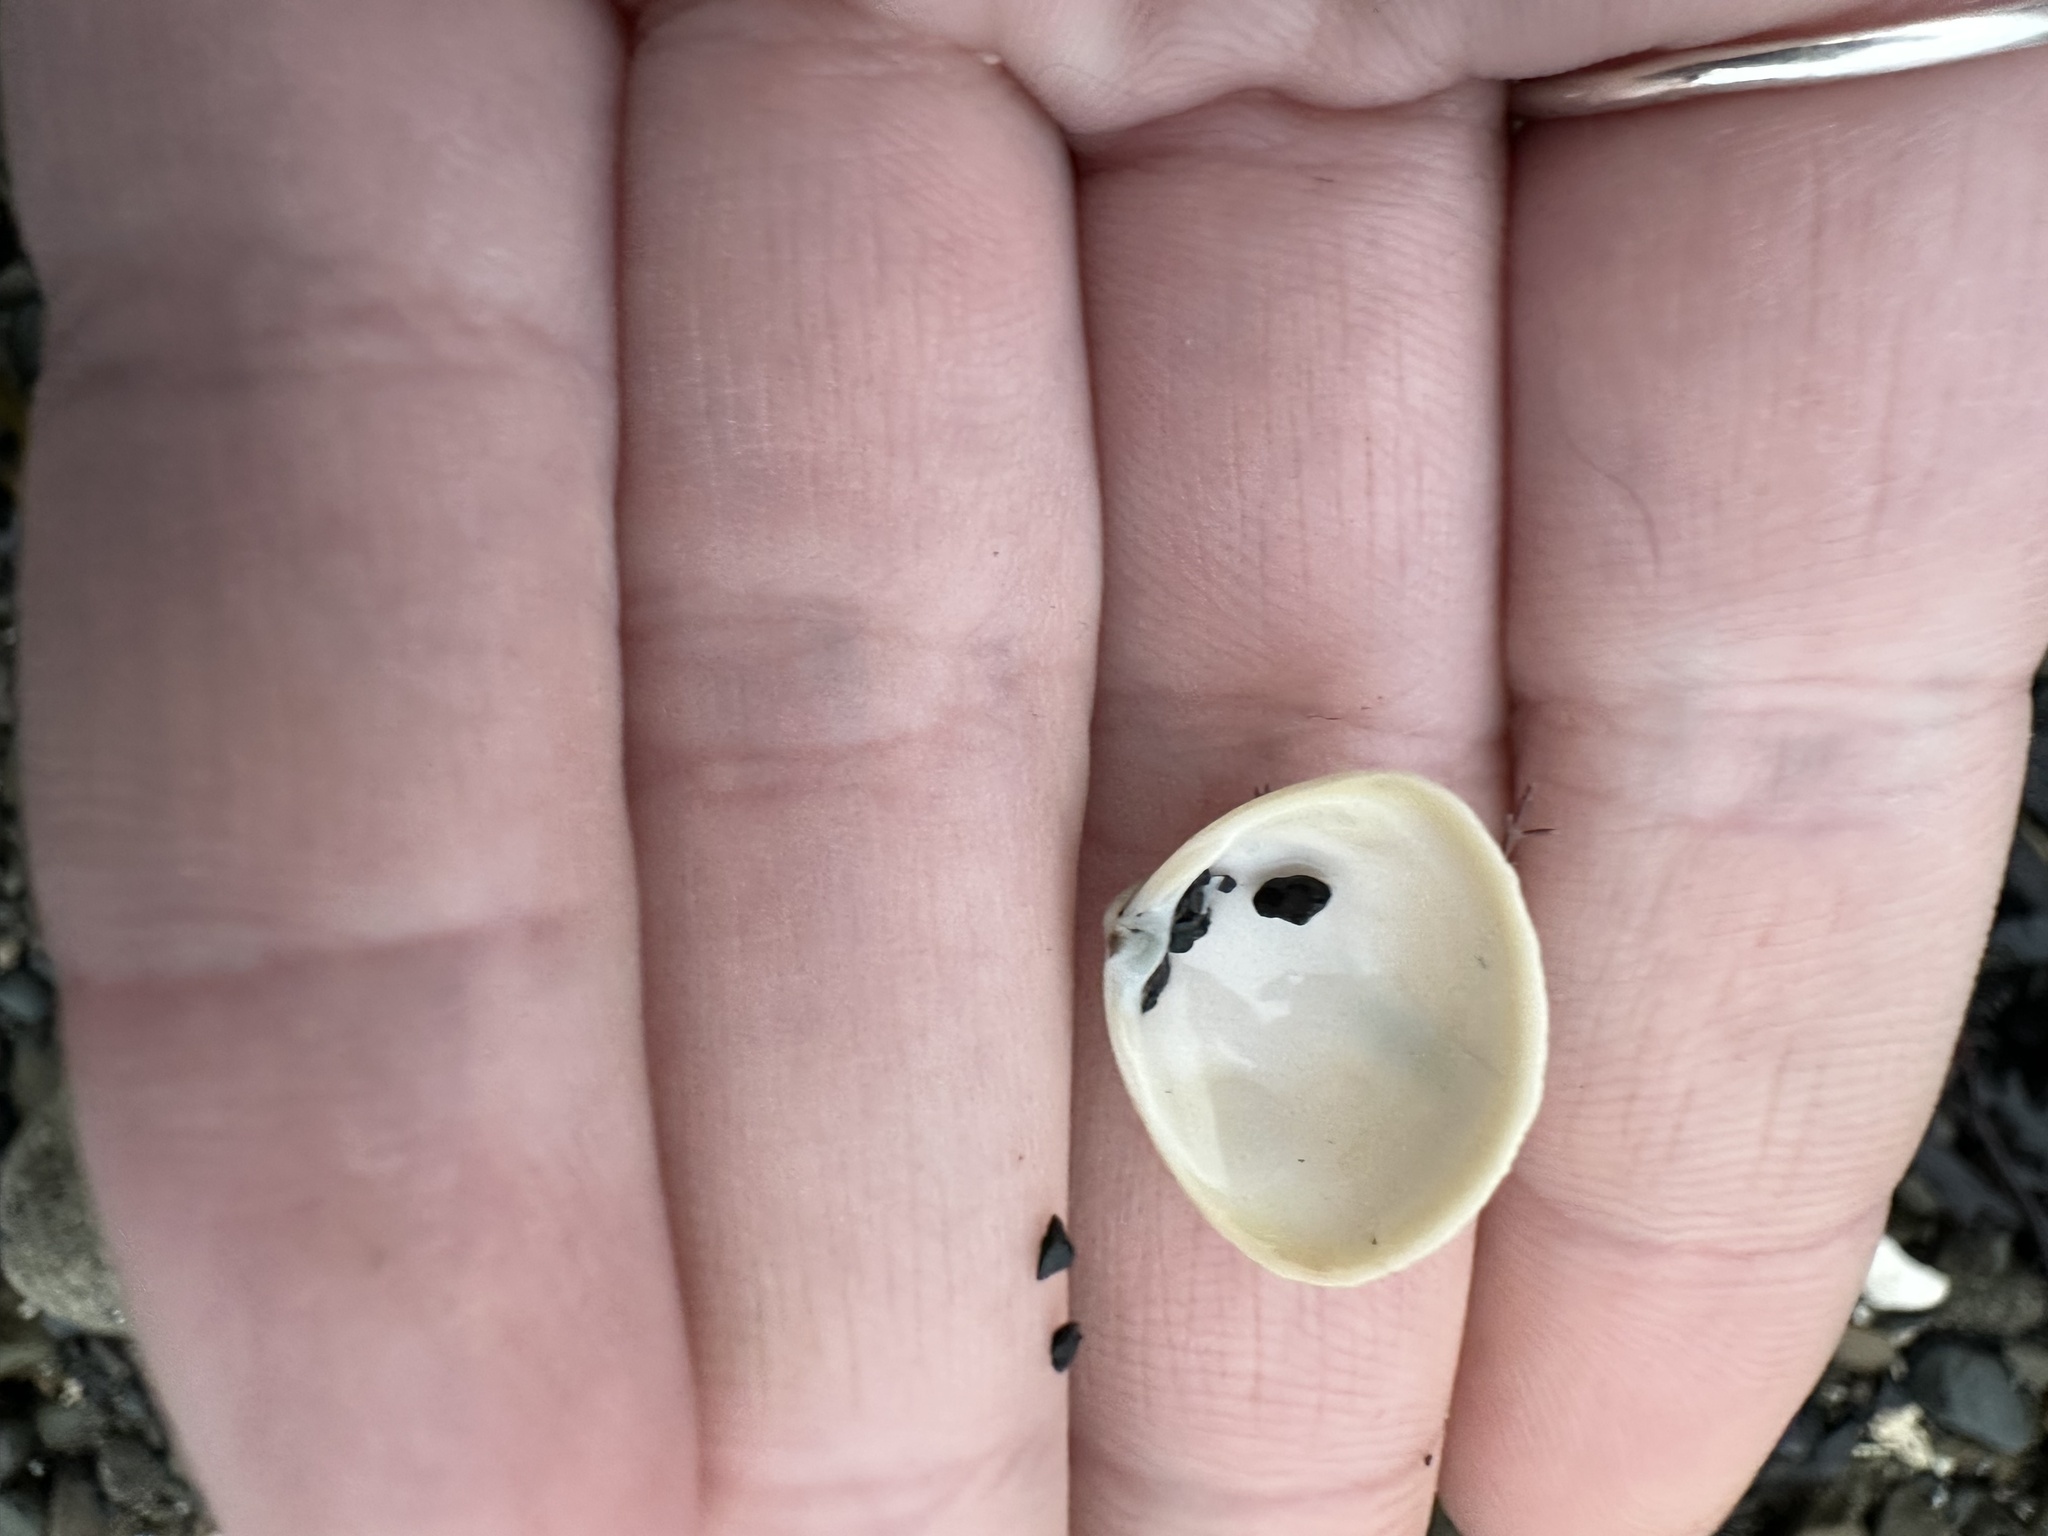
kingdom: Animalia
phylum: Mollusca
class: Bivalvia
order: Venerida
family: Mactridae
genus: Spisula
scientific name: Spisula solidissima
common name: Atlantic surf clam
